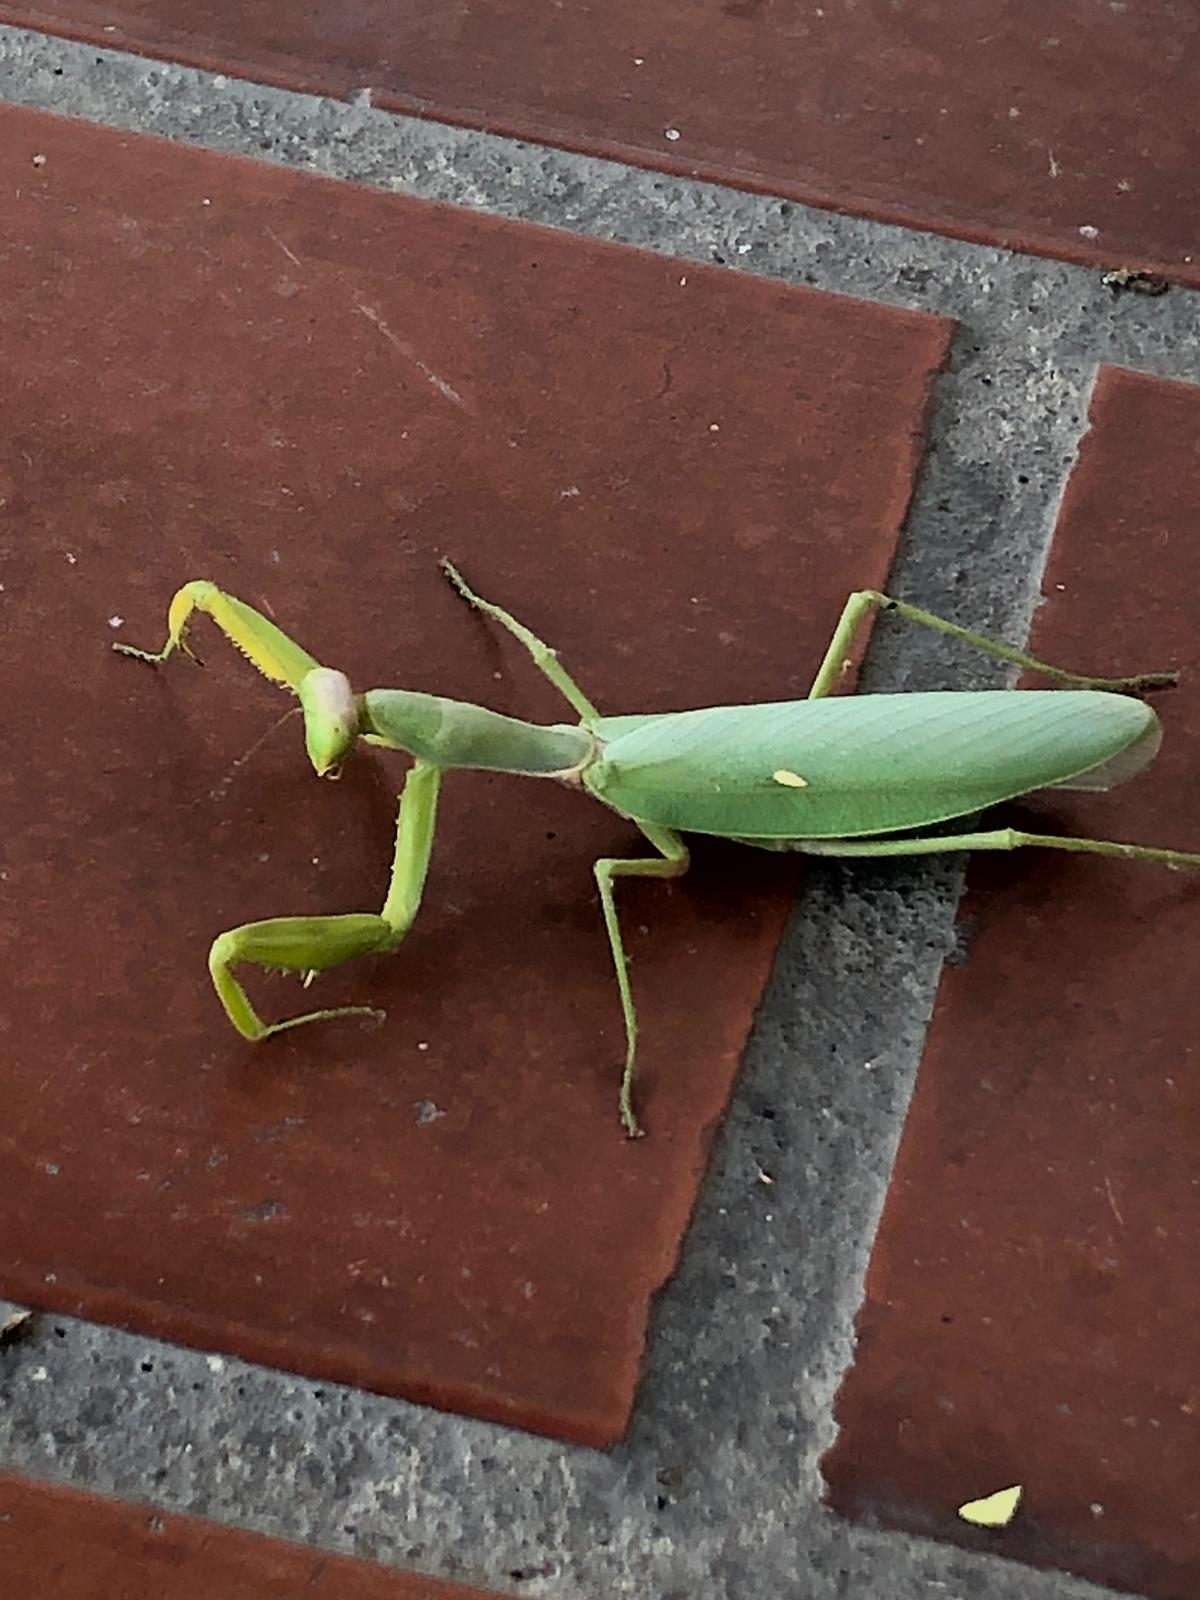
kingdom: Animalia
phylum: Arthropoda
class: Insecta
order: Mantodea
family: Mantidae
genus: Hierodula
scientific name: Hierodula transcaucasica
